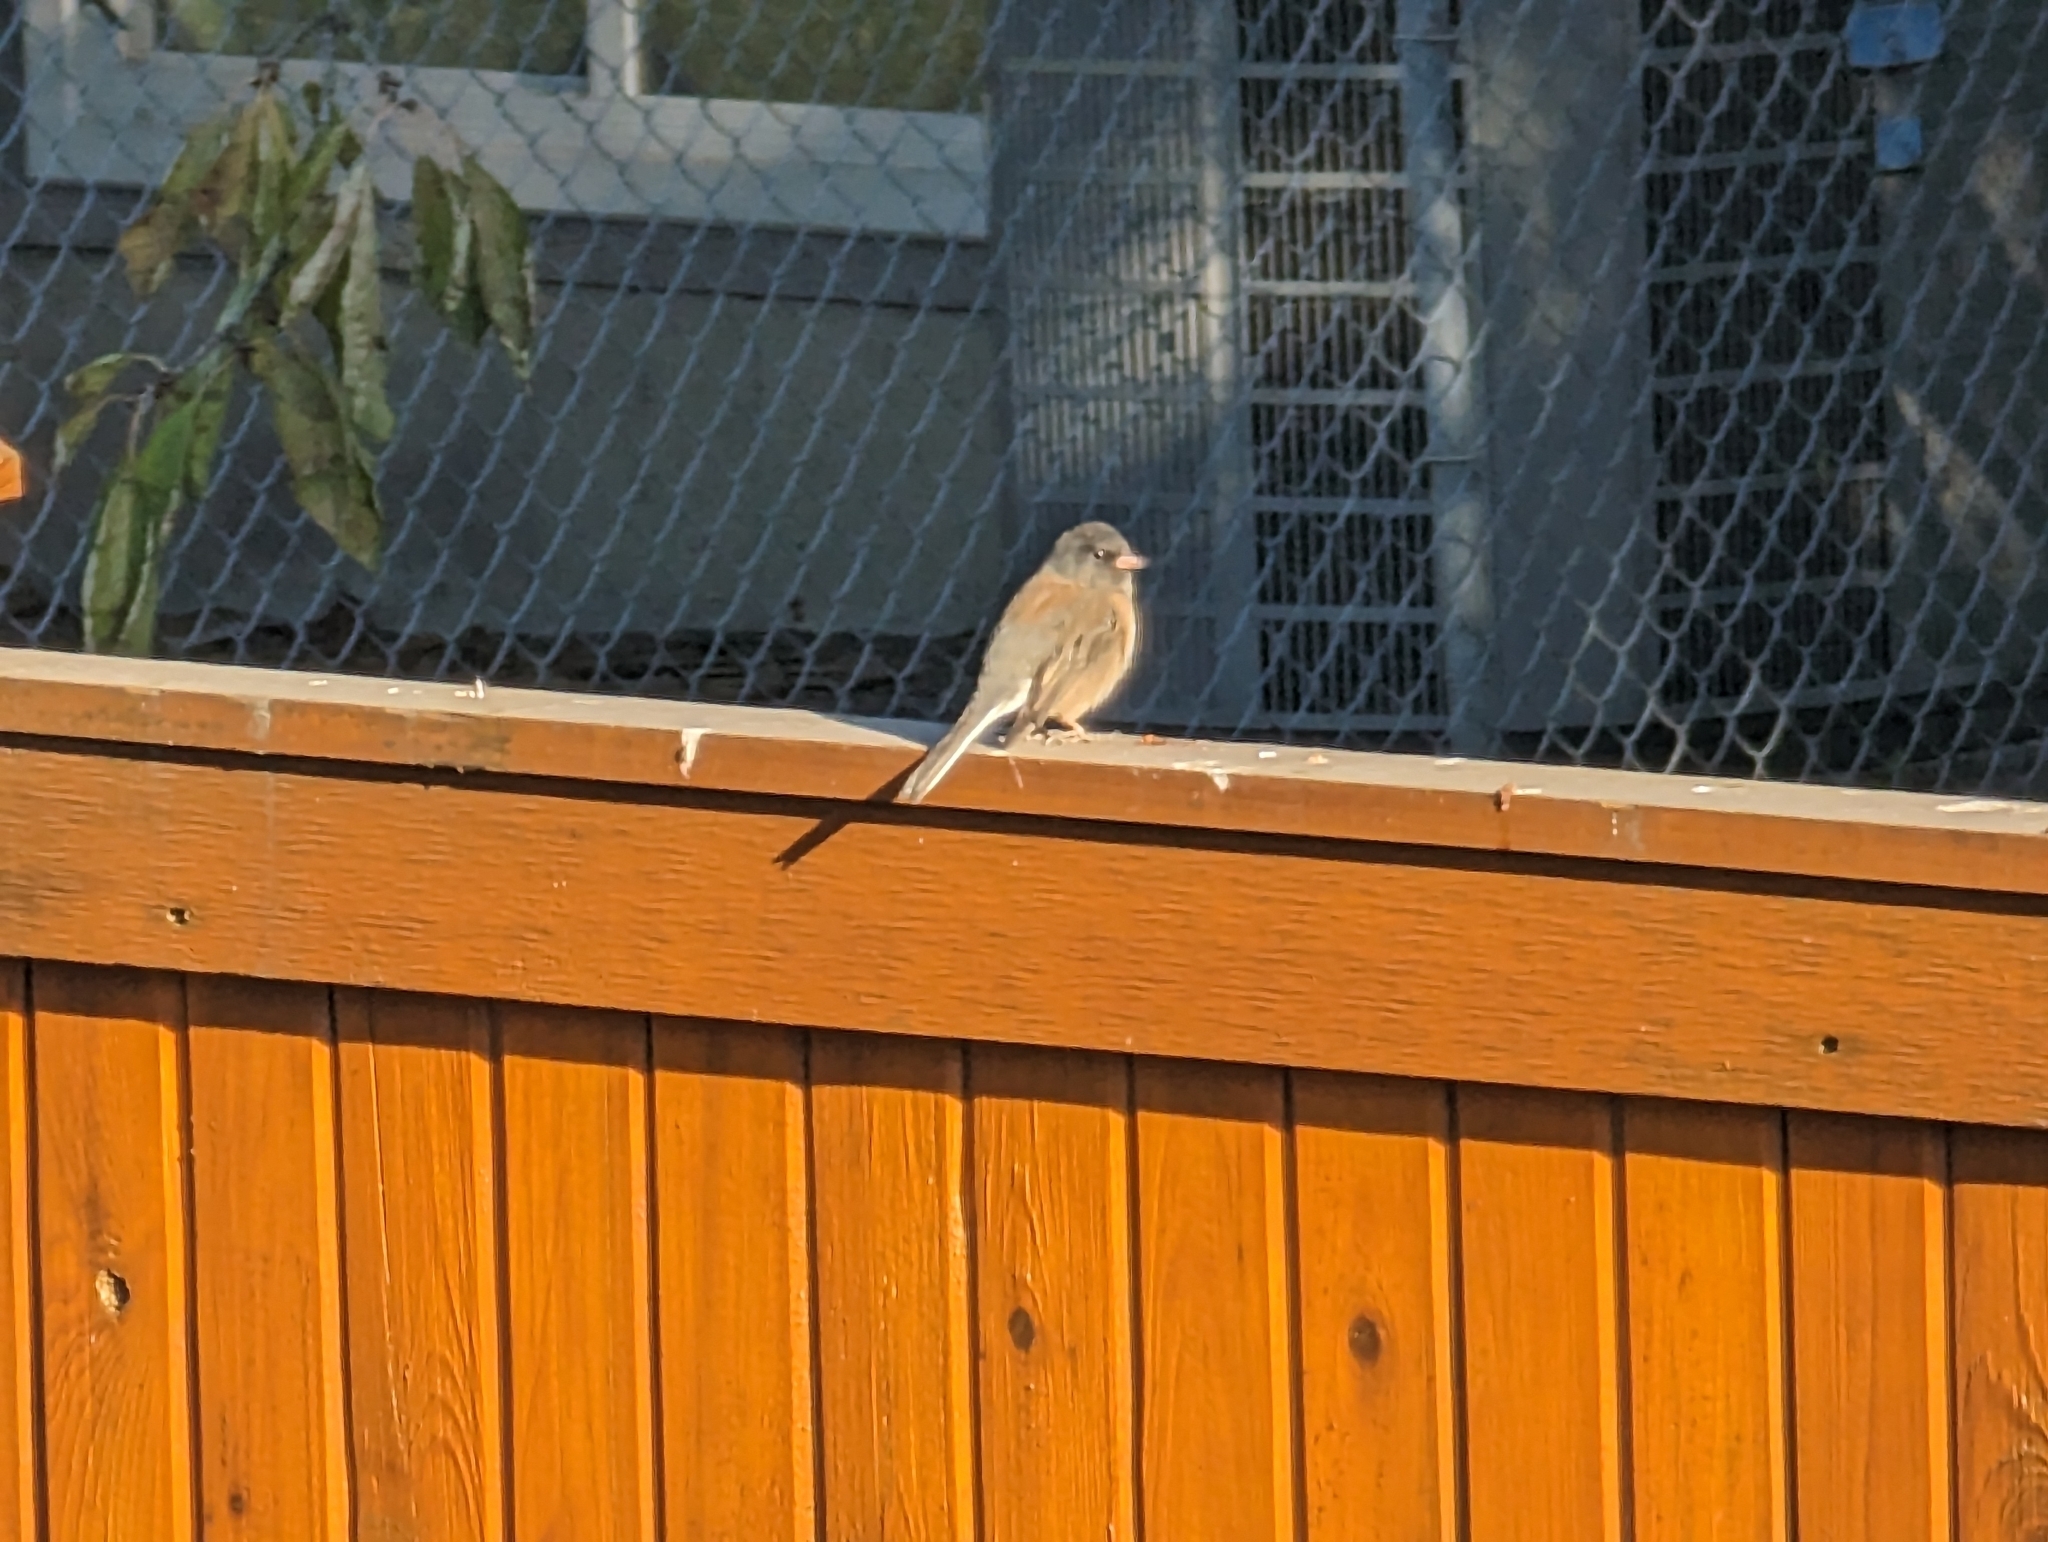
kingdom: Animalia
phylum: Chordata
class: Aves
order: Passeriformes
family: Passerellidae
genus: Junco
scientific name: Junco hyemalis
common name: Dark-eyed junco
